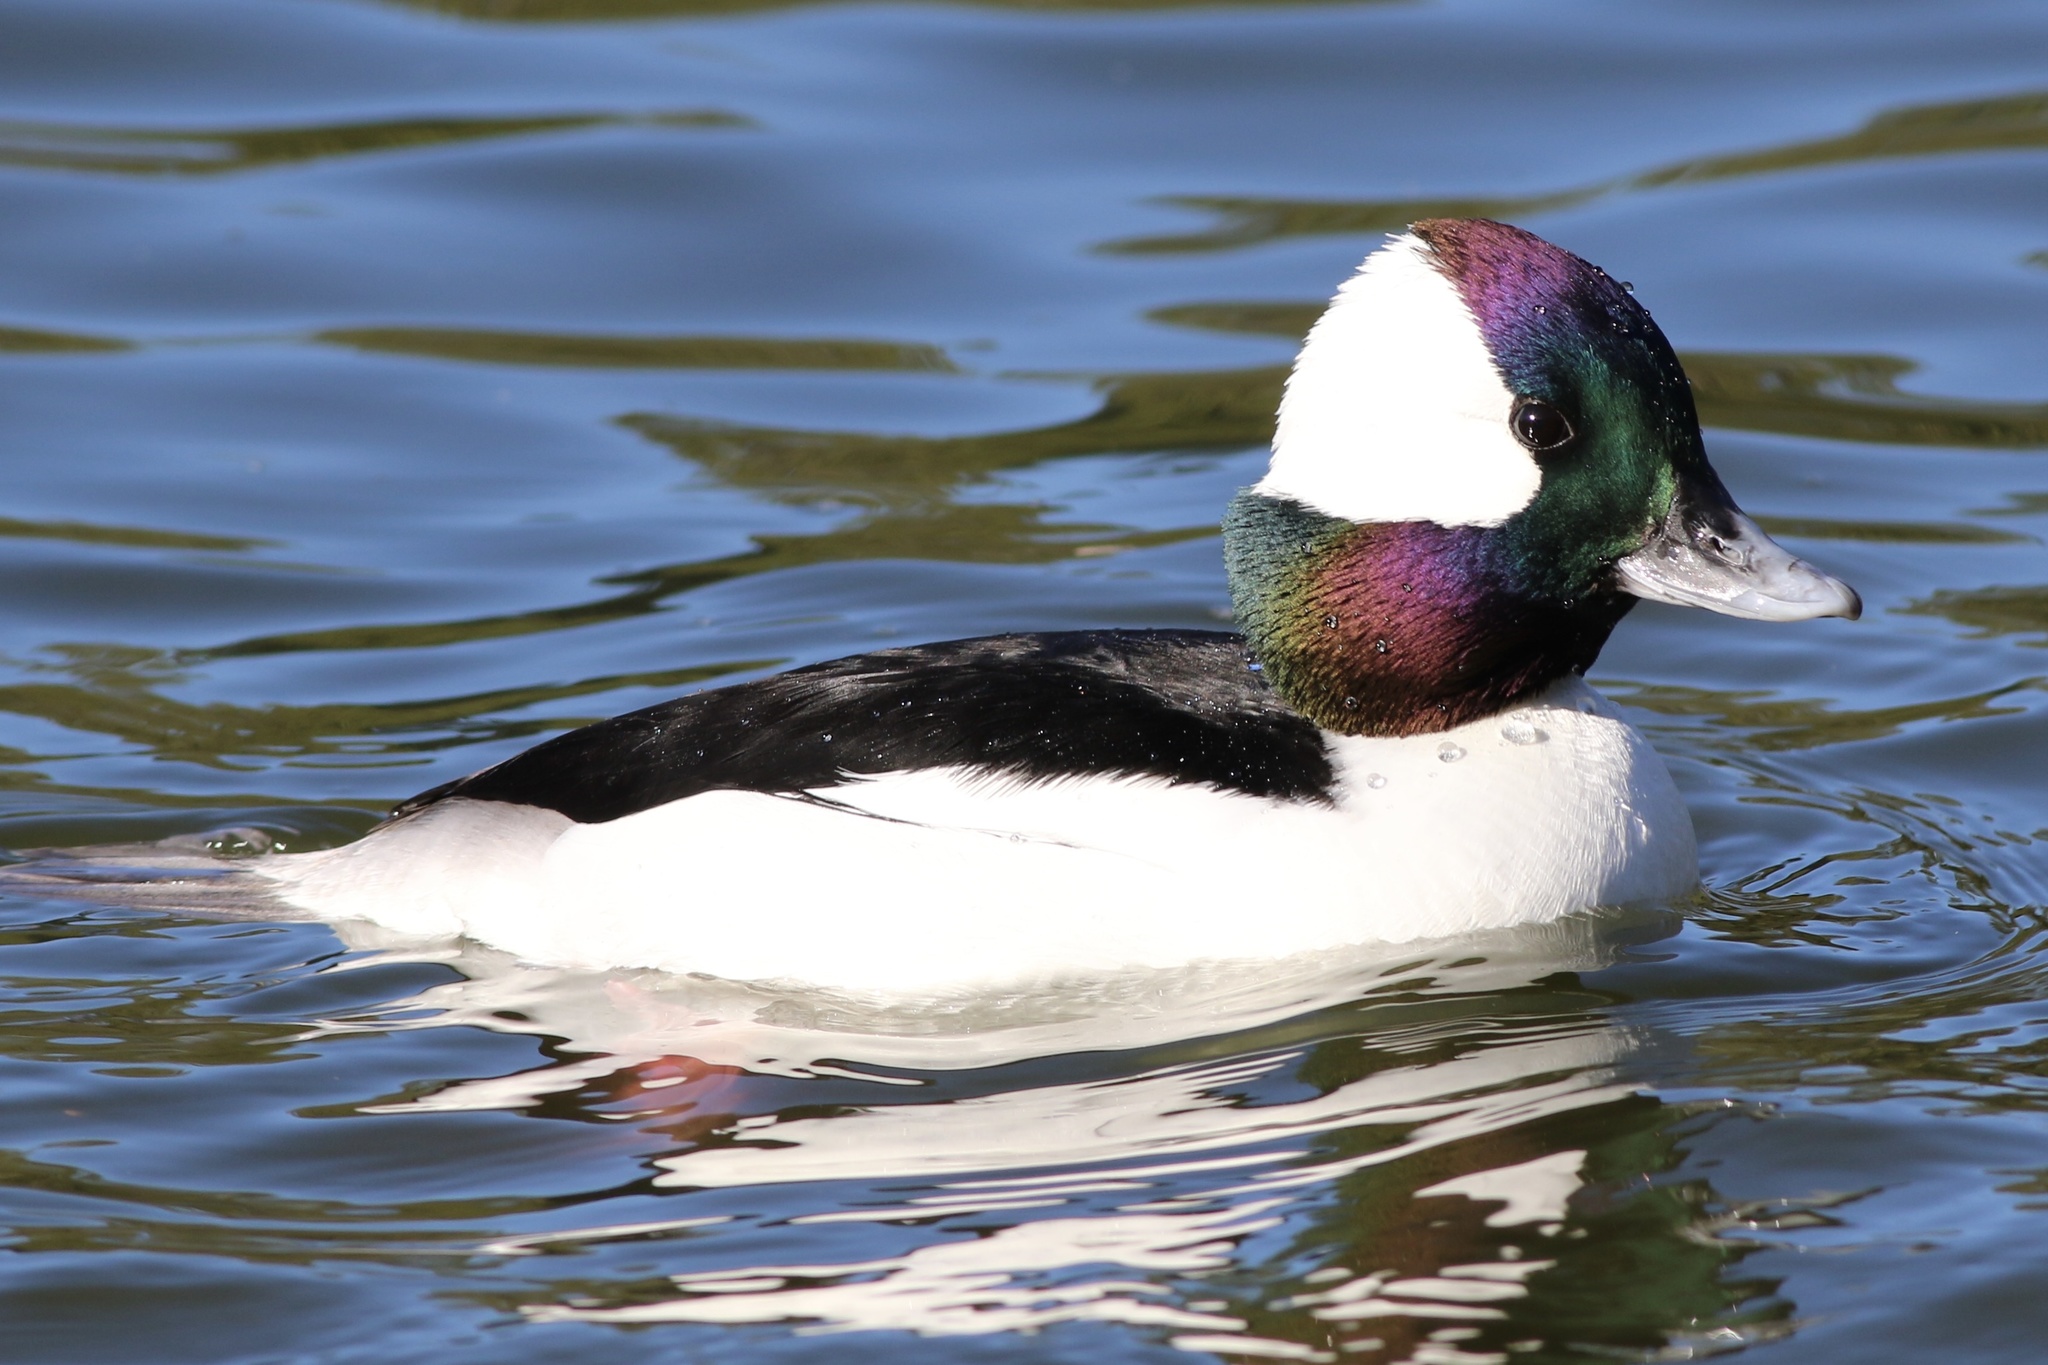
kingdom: Animalia
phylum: Chordata
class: Aves
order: Anseriformes
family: Anatidae
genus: Bucephala
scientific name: Bucephala albeola
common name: Bufflehead
